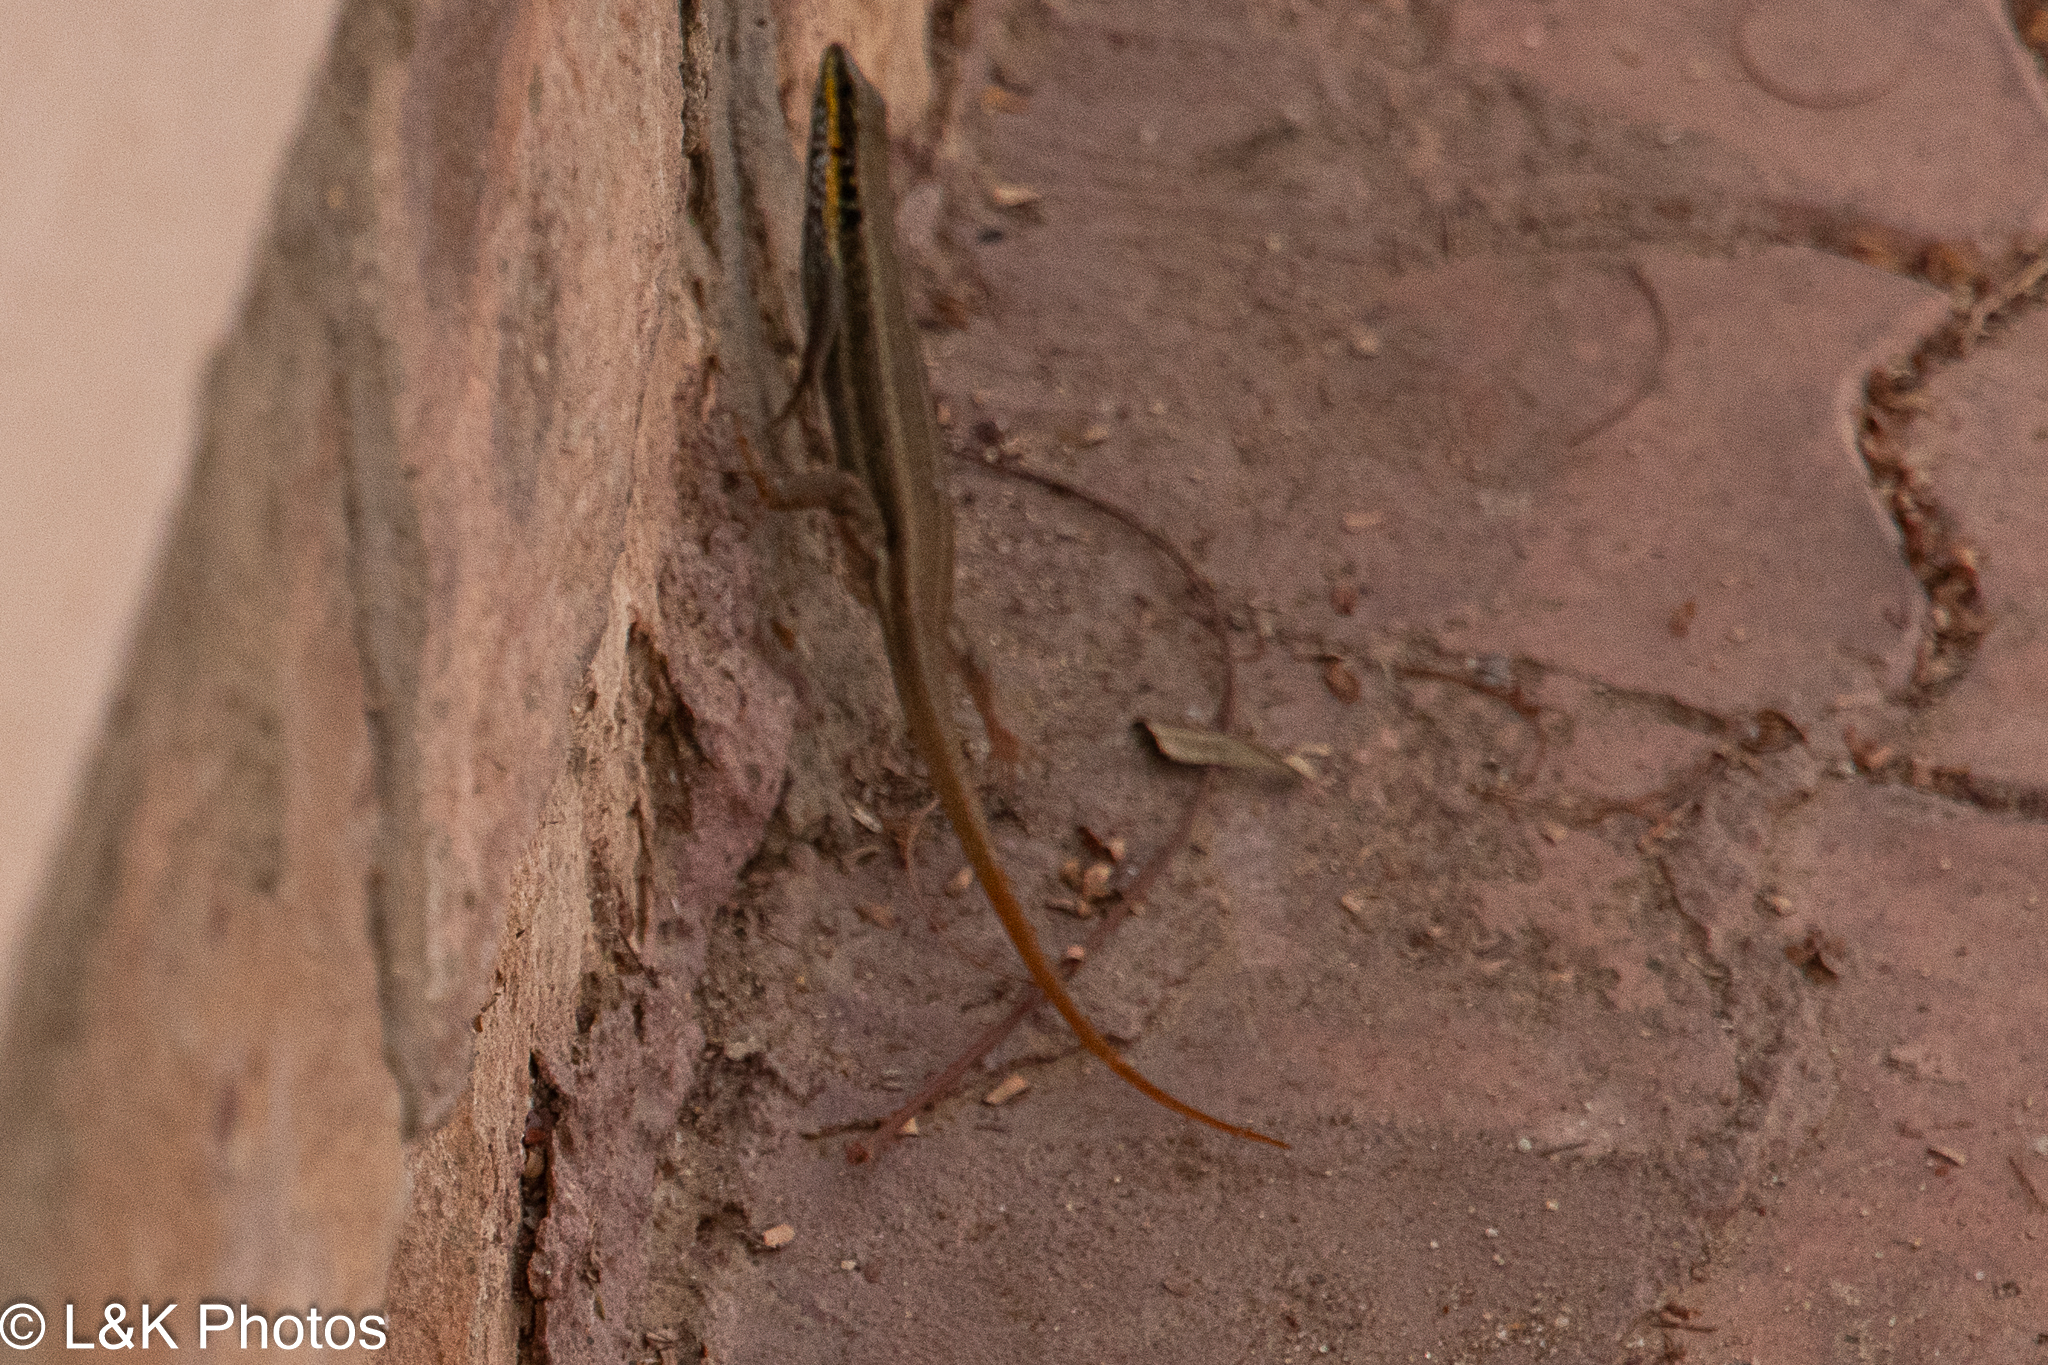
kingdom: Animalia
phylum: Chordata
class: Squamata
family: Scincidae
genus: Trachylepis
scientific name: Trachylepis quinquetaeniata
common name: African five-lined skink
